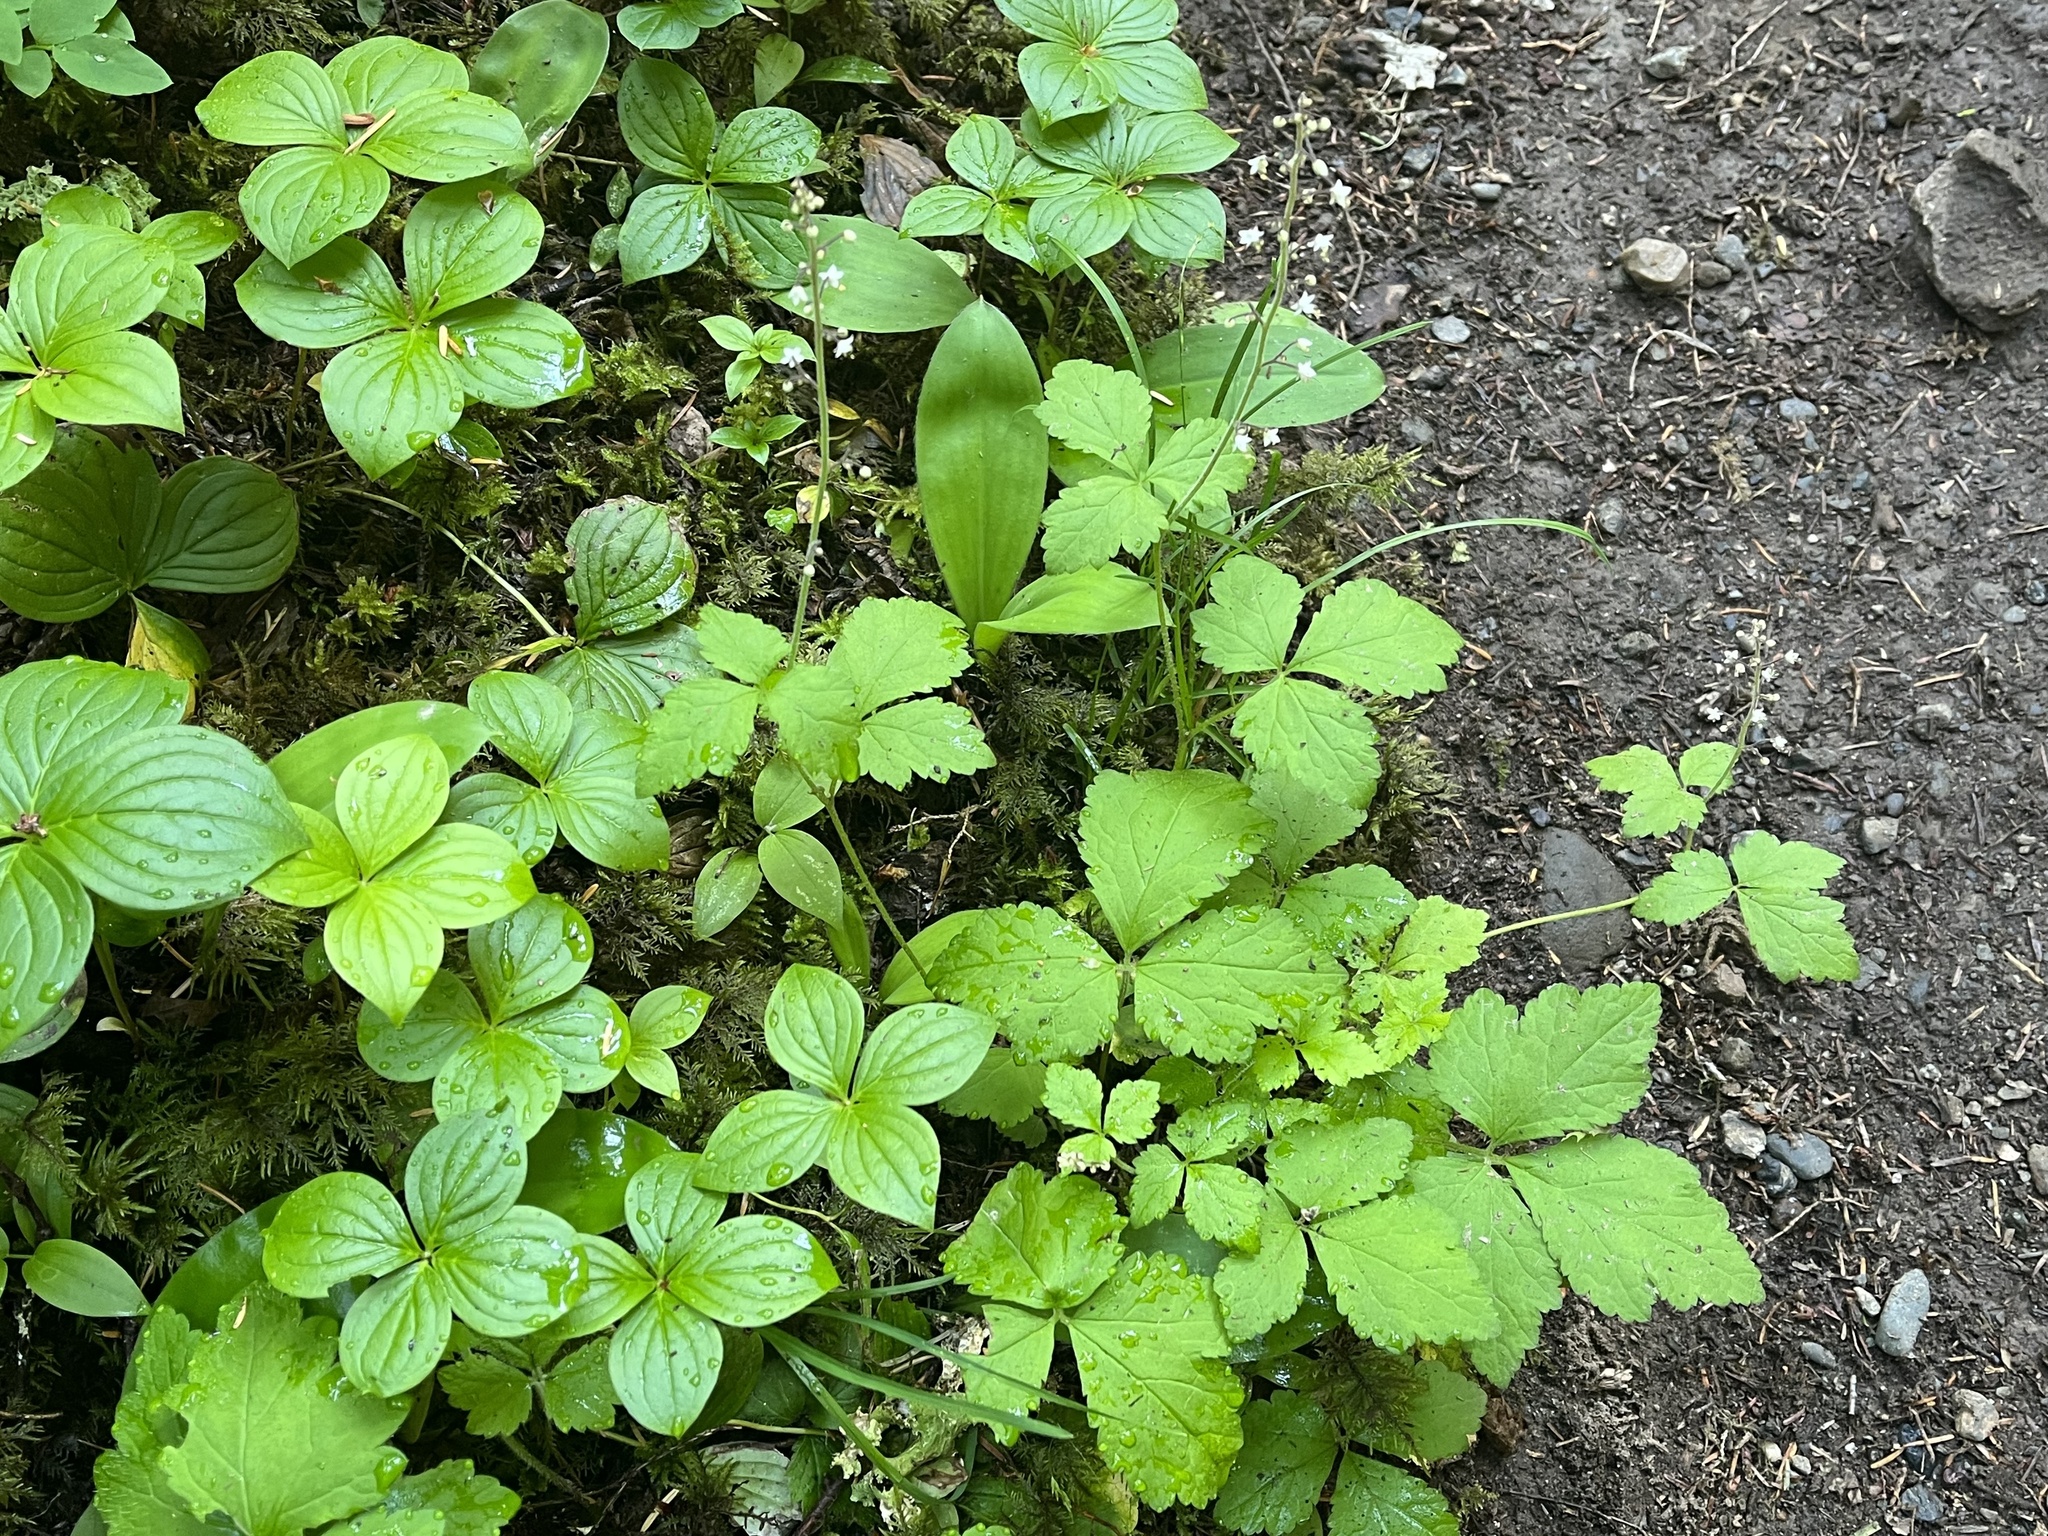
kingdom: Plantae
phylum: Tracheophyta
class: Magnoliopsida
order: Saxifragales
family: Saxifragaceae
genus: Tiarella
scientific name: Tiarella trifoliata
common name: Sugar-scoop
